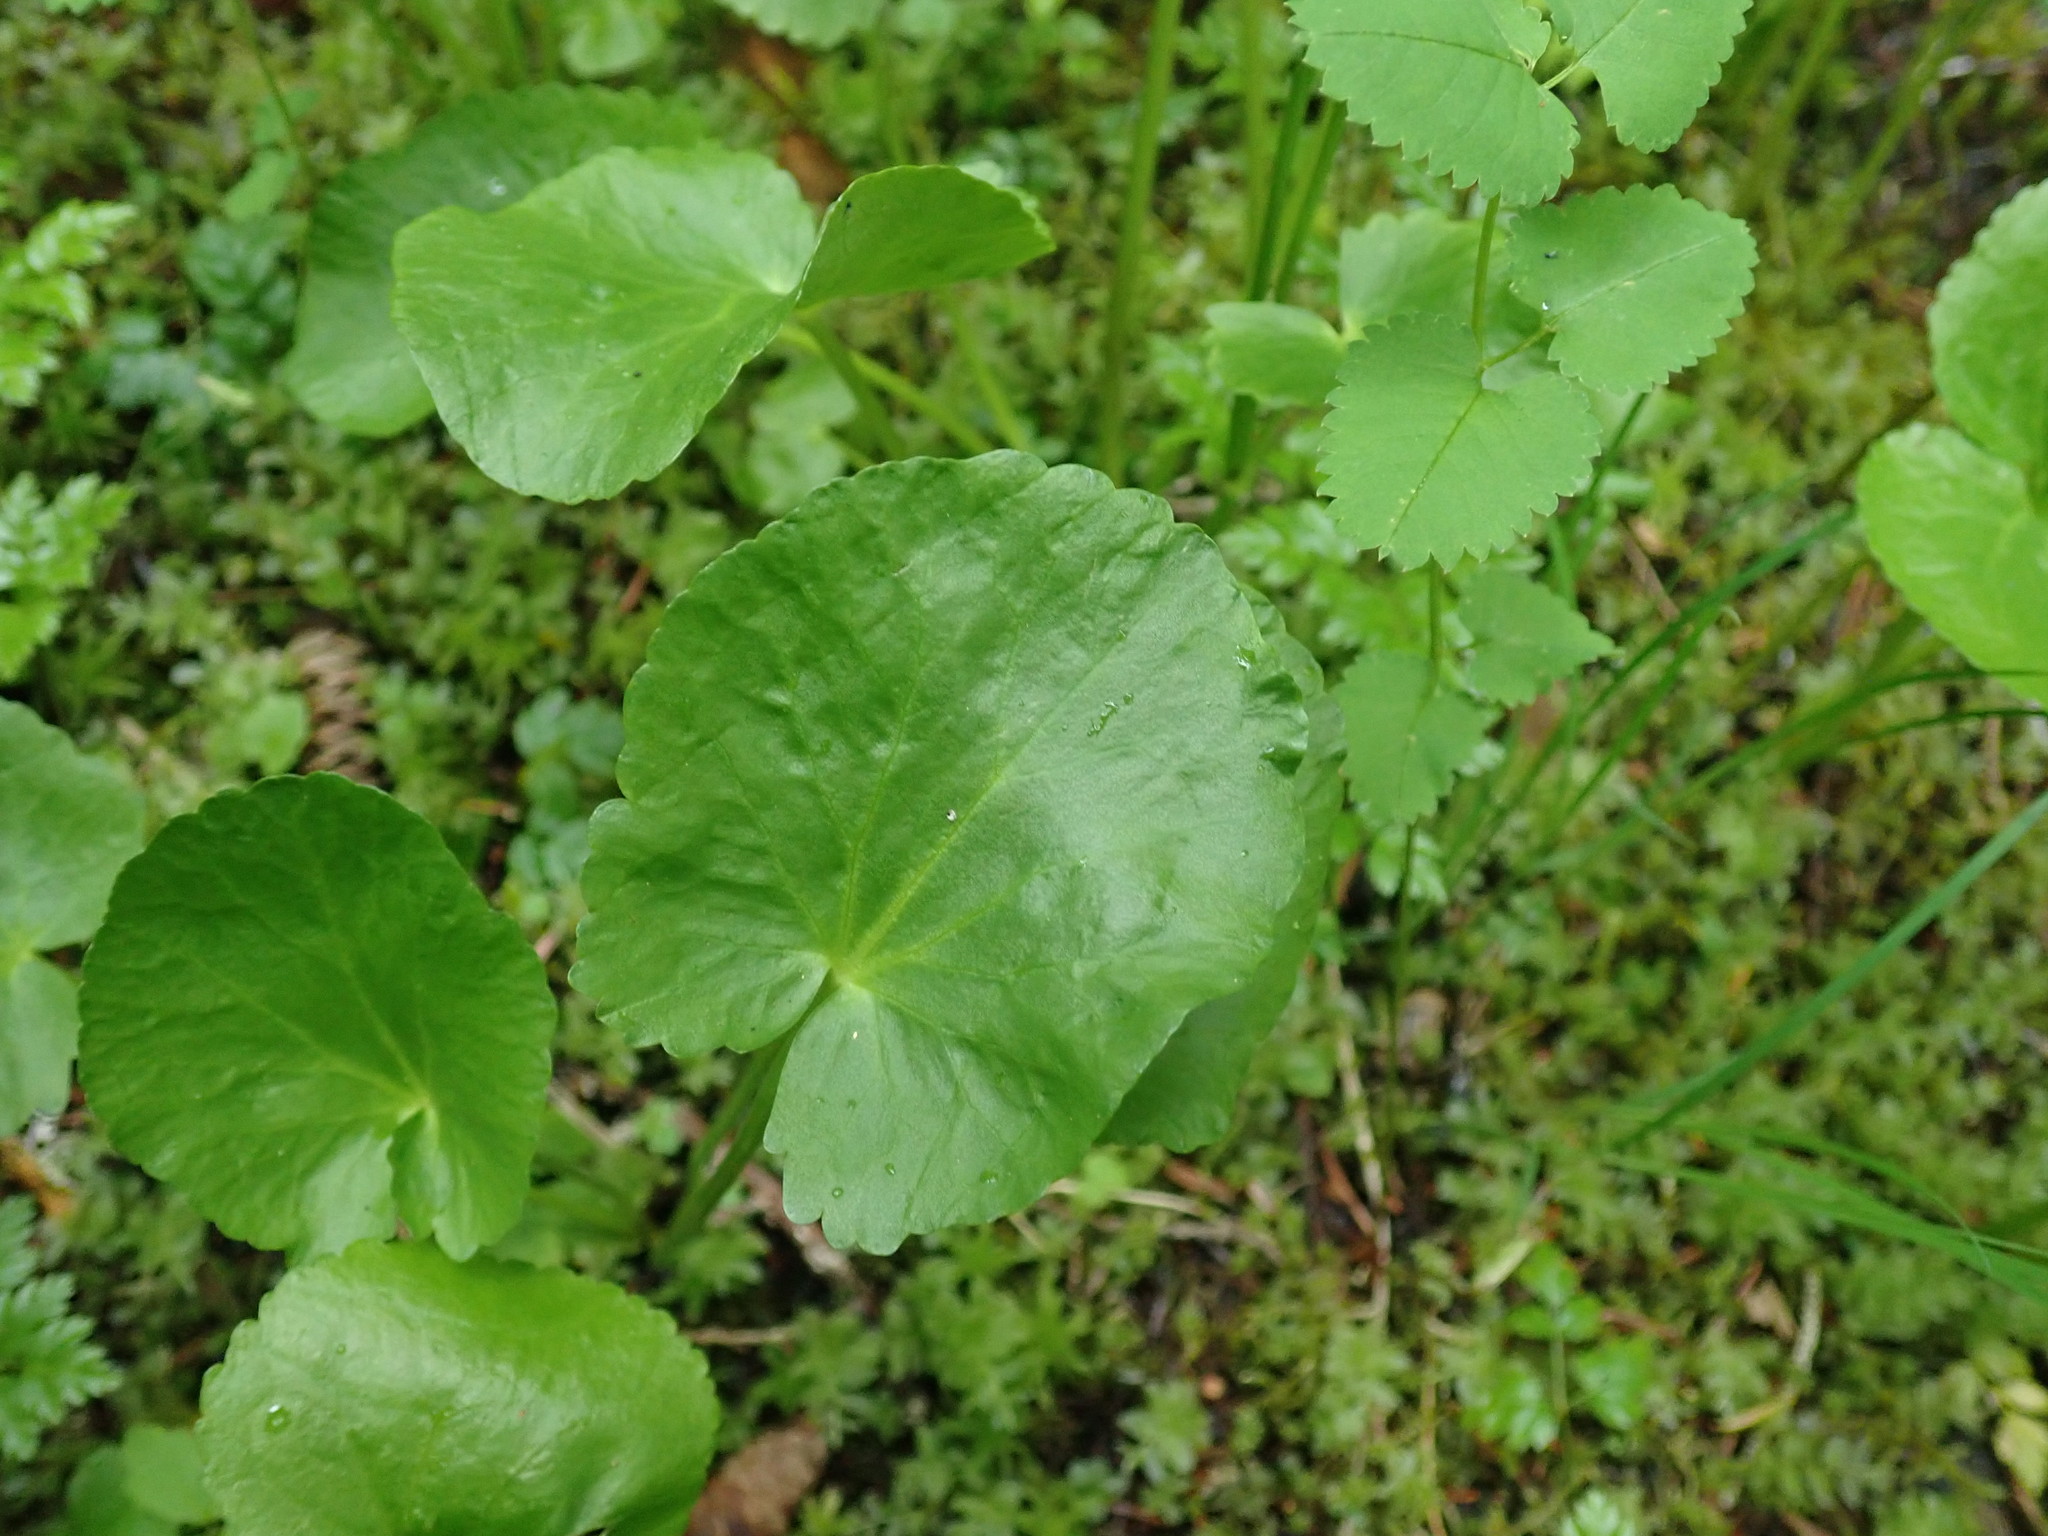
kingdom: Plantae
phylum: Tracheophyta
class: Magnoliopsida
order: Ranunculales
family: Ranunculaceae
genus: Caltha
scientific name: Caltha leptosepala
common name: Elkslip
